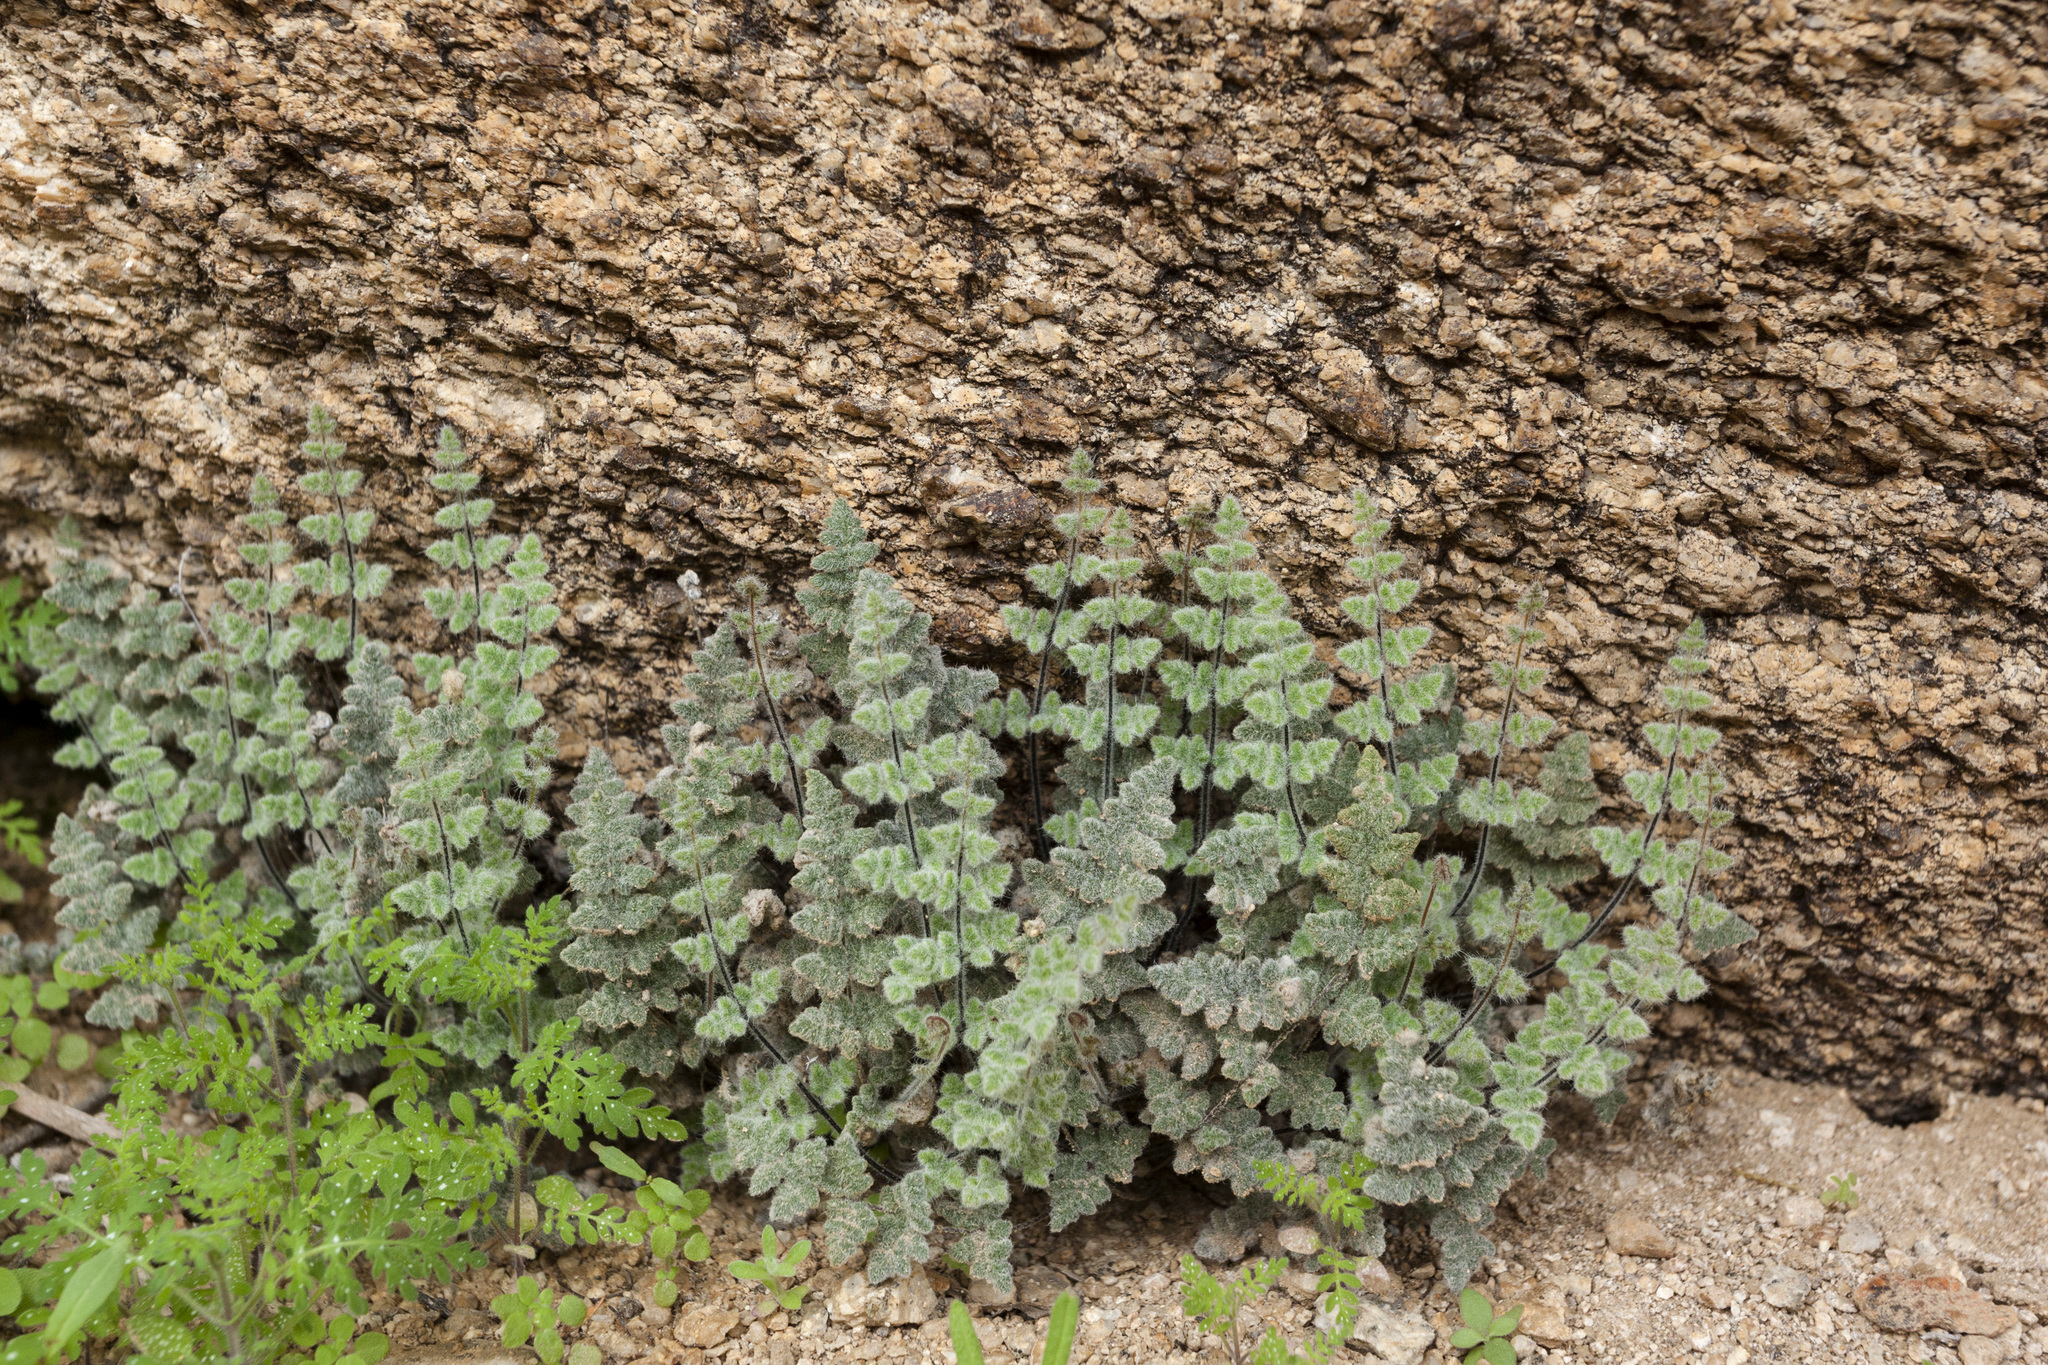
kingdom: Plantae
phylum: Tracheophyta
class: Polypodiopsida
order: Polypodiales
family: Pteridaceae
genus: Myriopteris
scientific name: Myriopteris parryi
